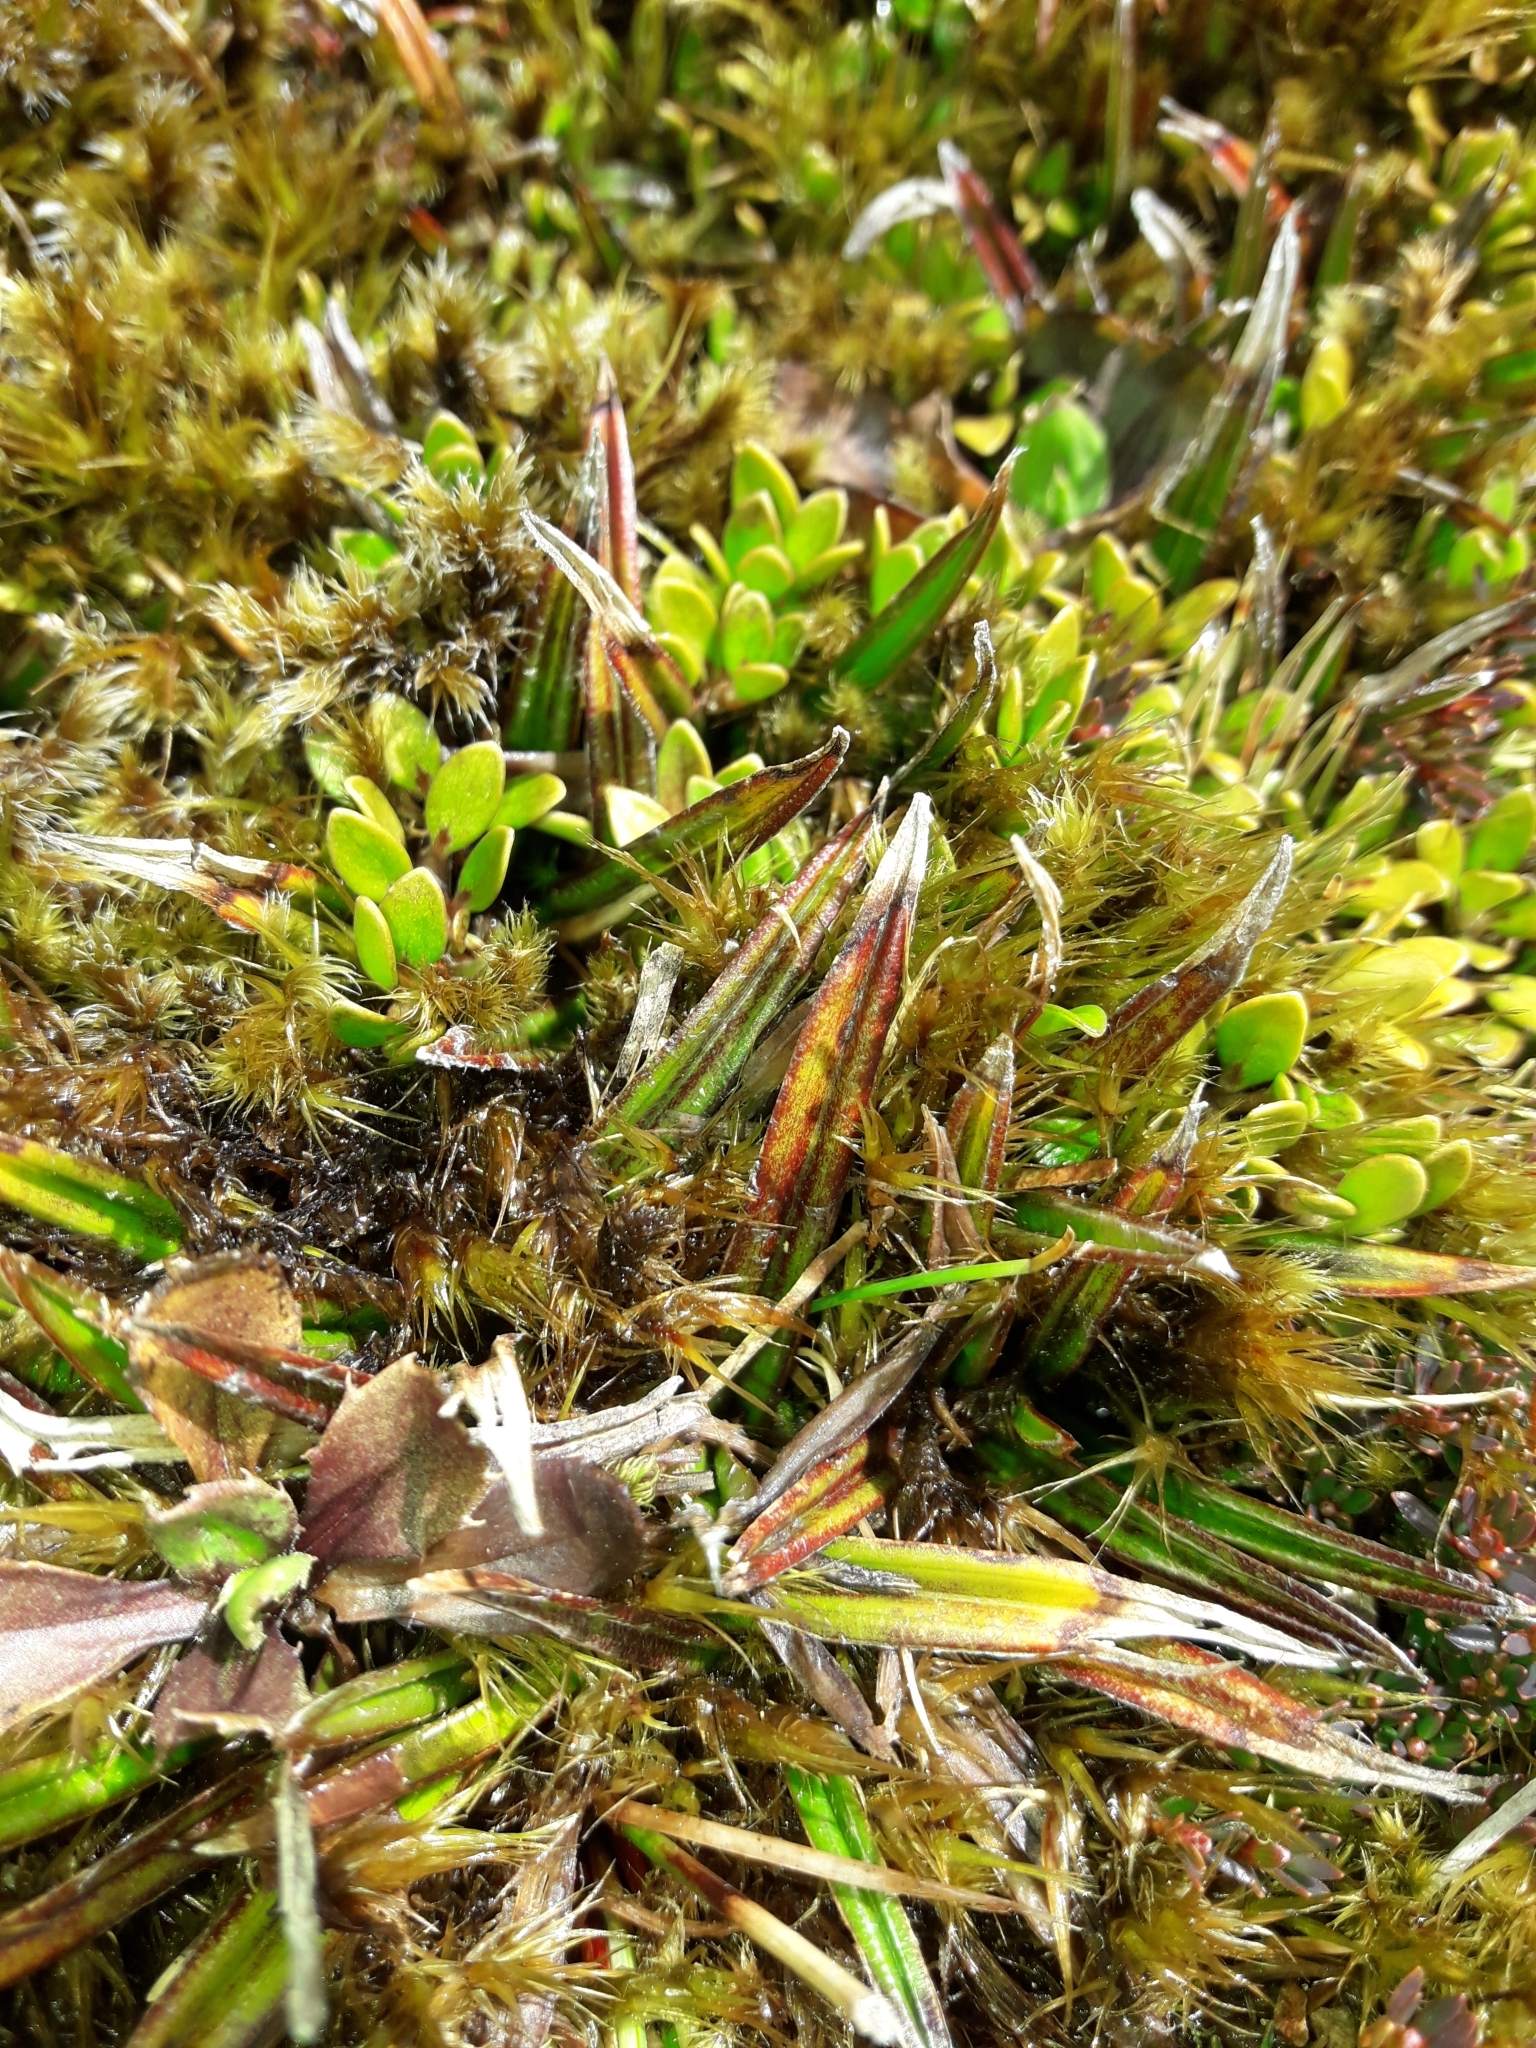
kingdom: Plantae
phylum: Tracheophyta
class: Liliopsida
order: Asparagales
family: Asteliaceae
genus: Astelia
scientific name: Astelia linearis
